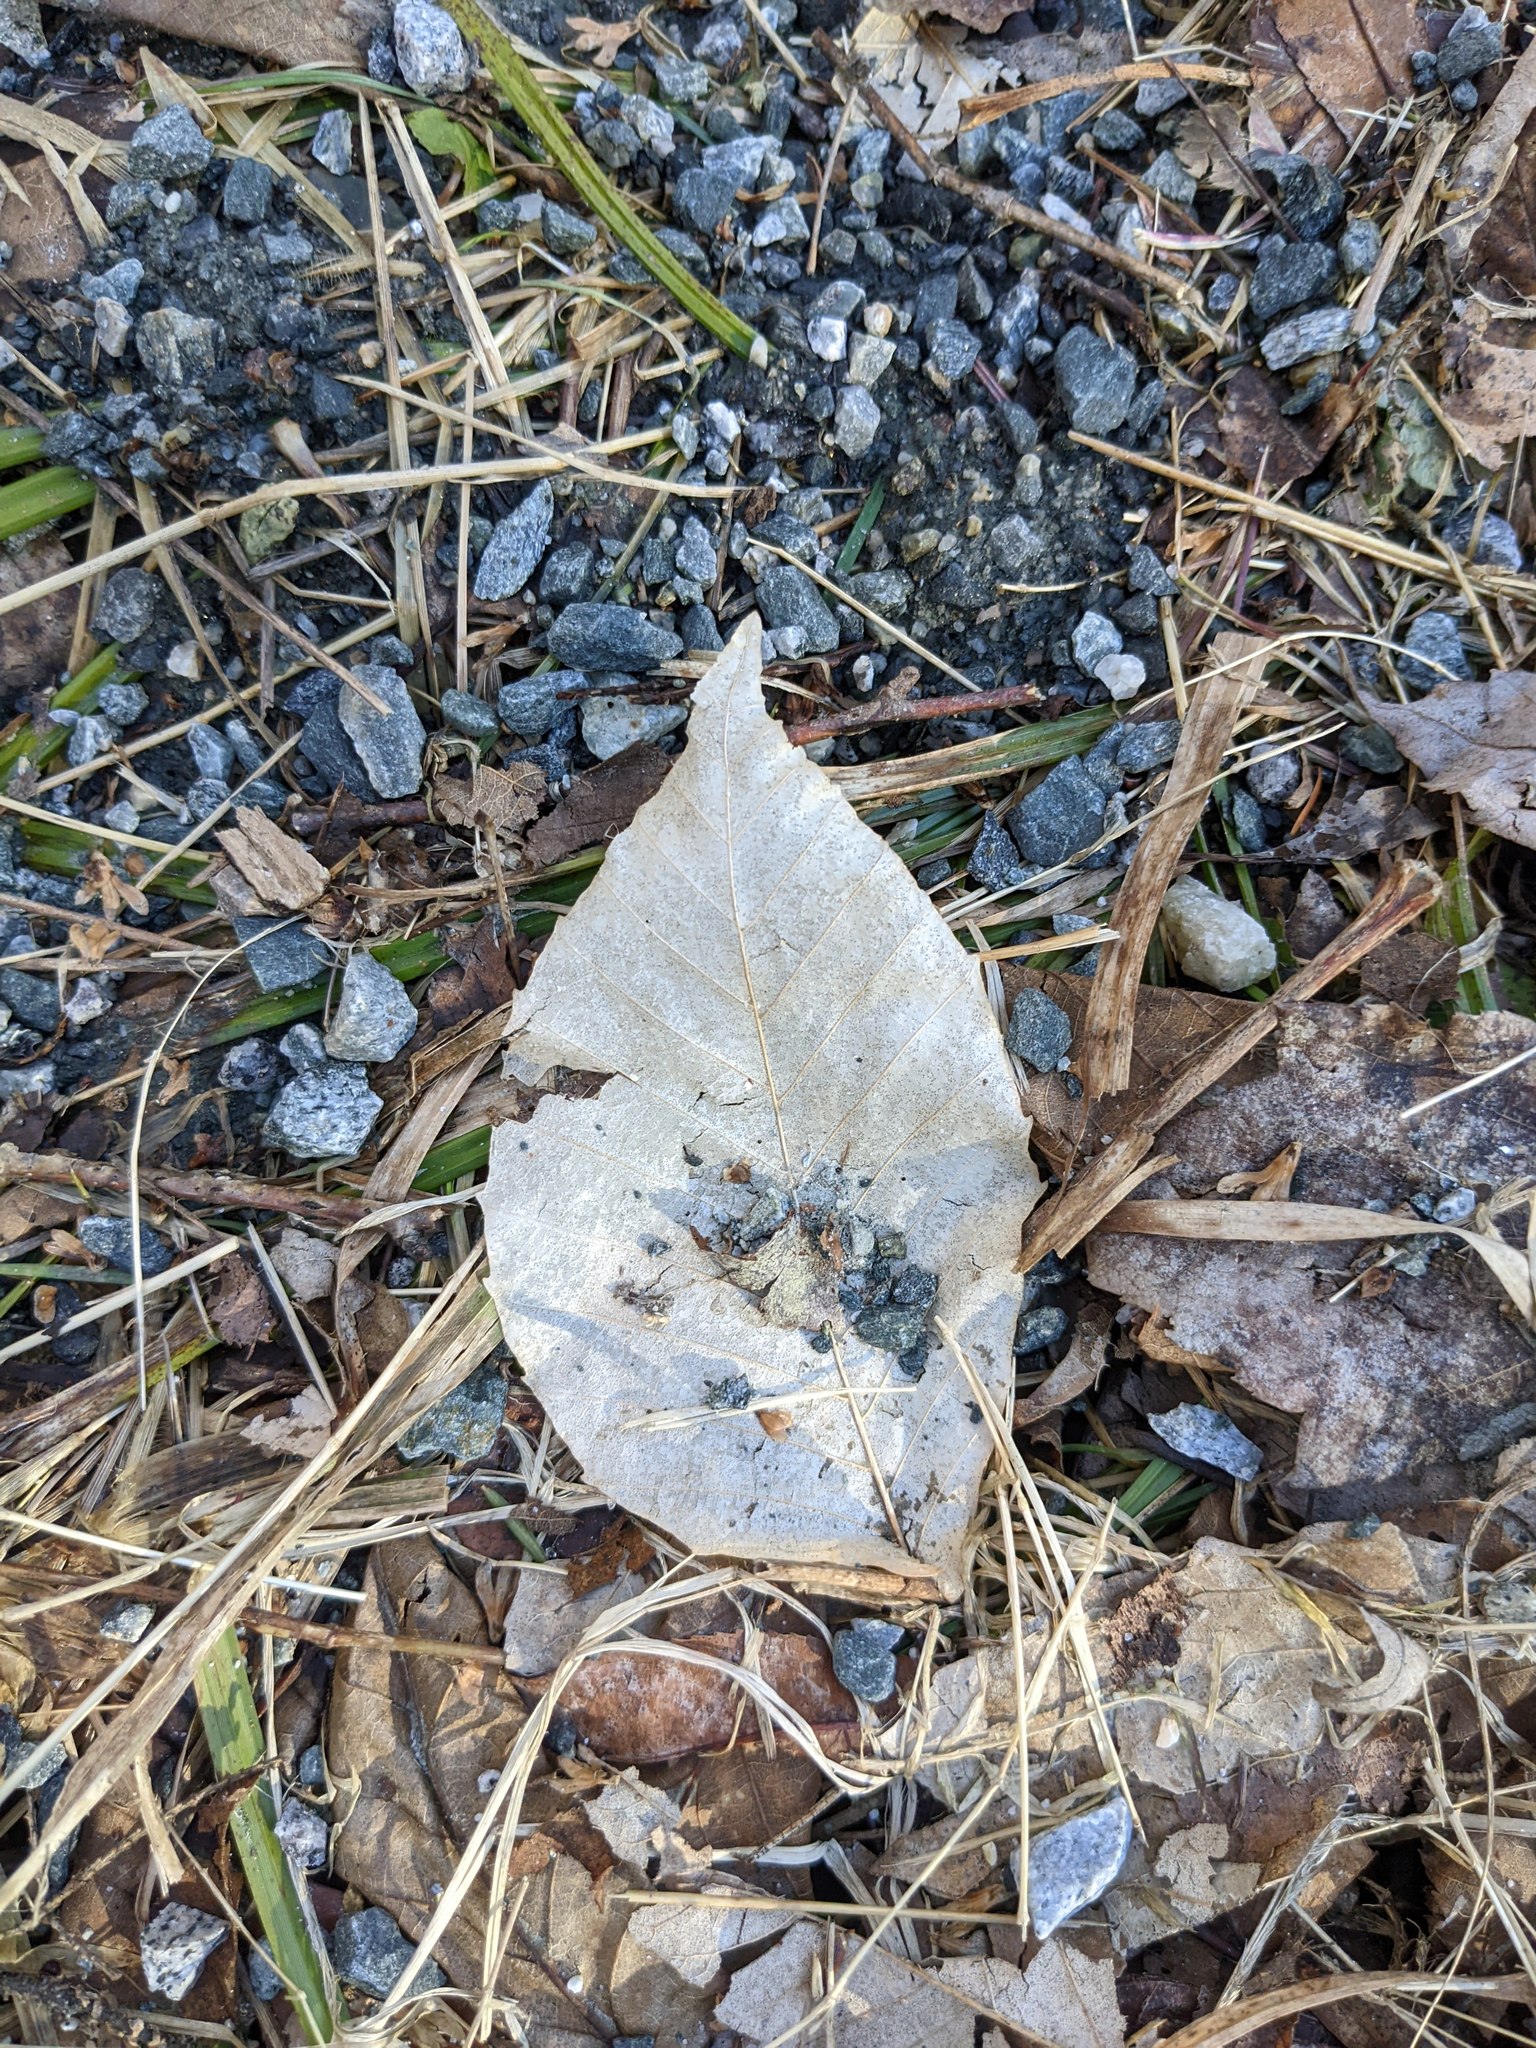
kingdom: Plantae
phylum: Tracheophyta
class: Magnoliopsida
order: Fagales
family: Fagaceae
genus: Fagus
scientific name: Fagus grandifolia
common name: American beech
